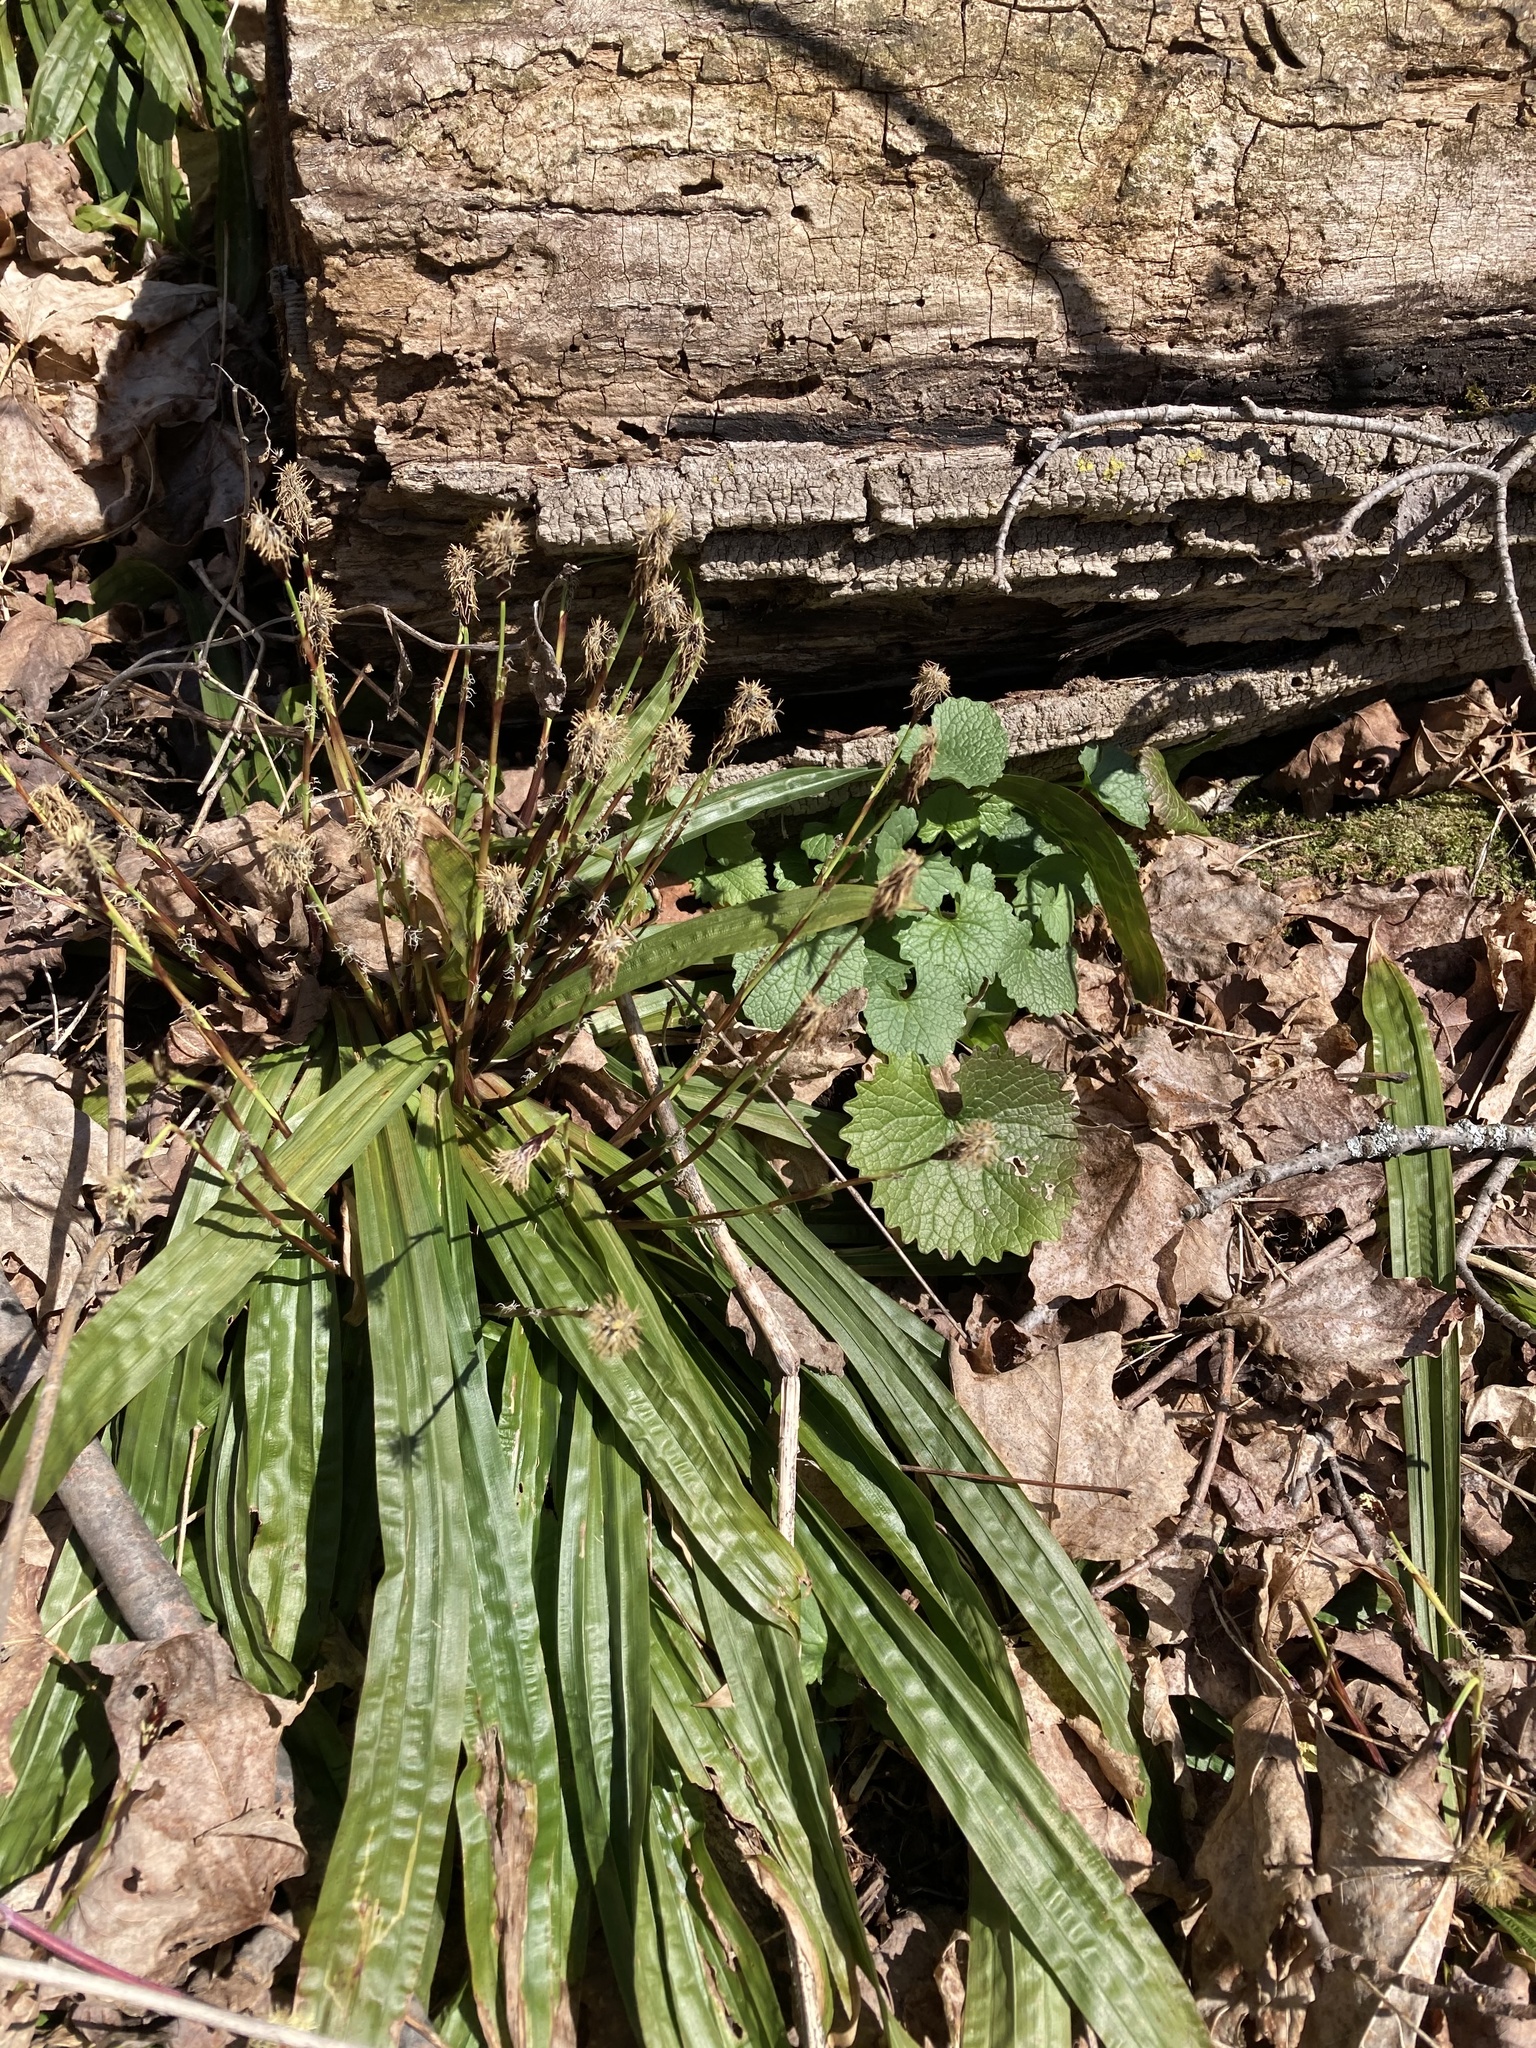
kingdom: Plantae
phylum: Tracheophyta
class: Liliopsida
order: Poales
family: Cyperaceae
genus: Carex
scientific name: Carex plantaginea
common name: Plantain-leaved sedge
